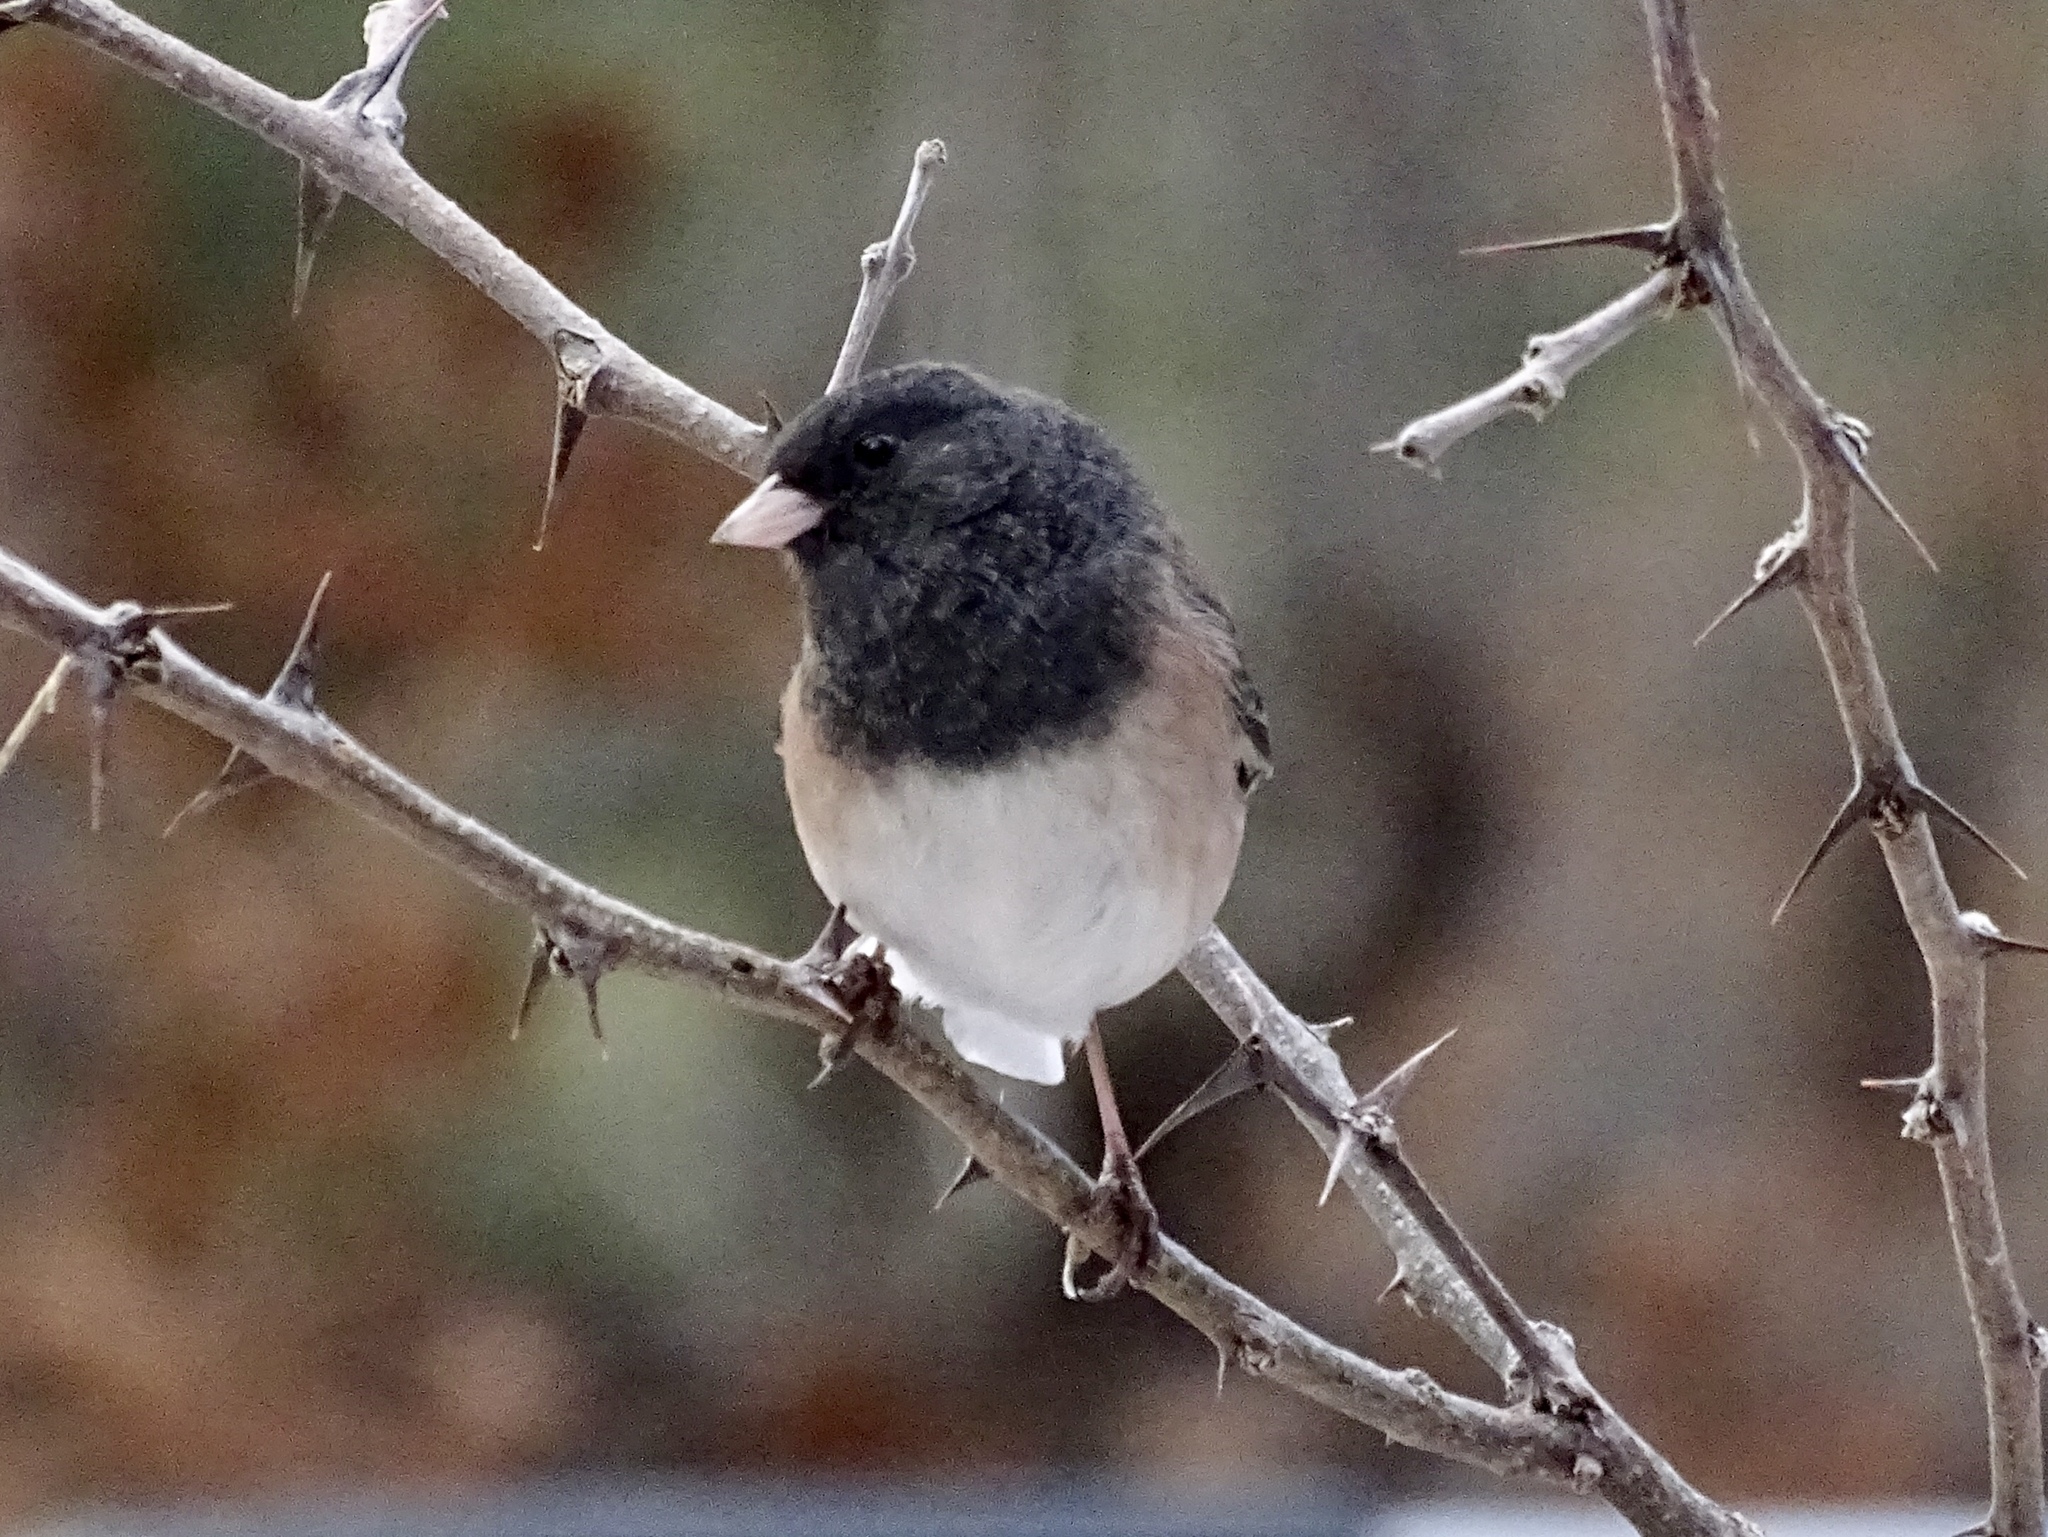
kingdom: Animalia
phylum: Chordata
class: Aves
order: Passeriformes
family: Passerellidae
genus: Junco
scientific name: Junco hyemalis
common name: Dark-eyed junco
